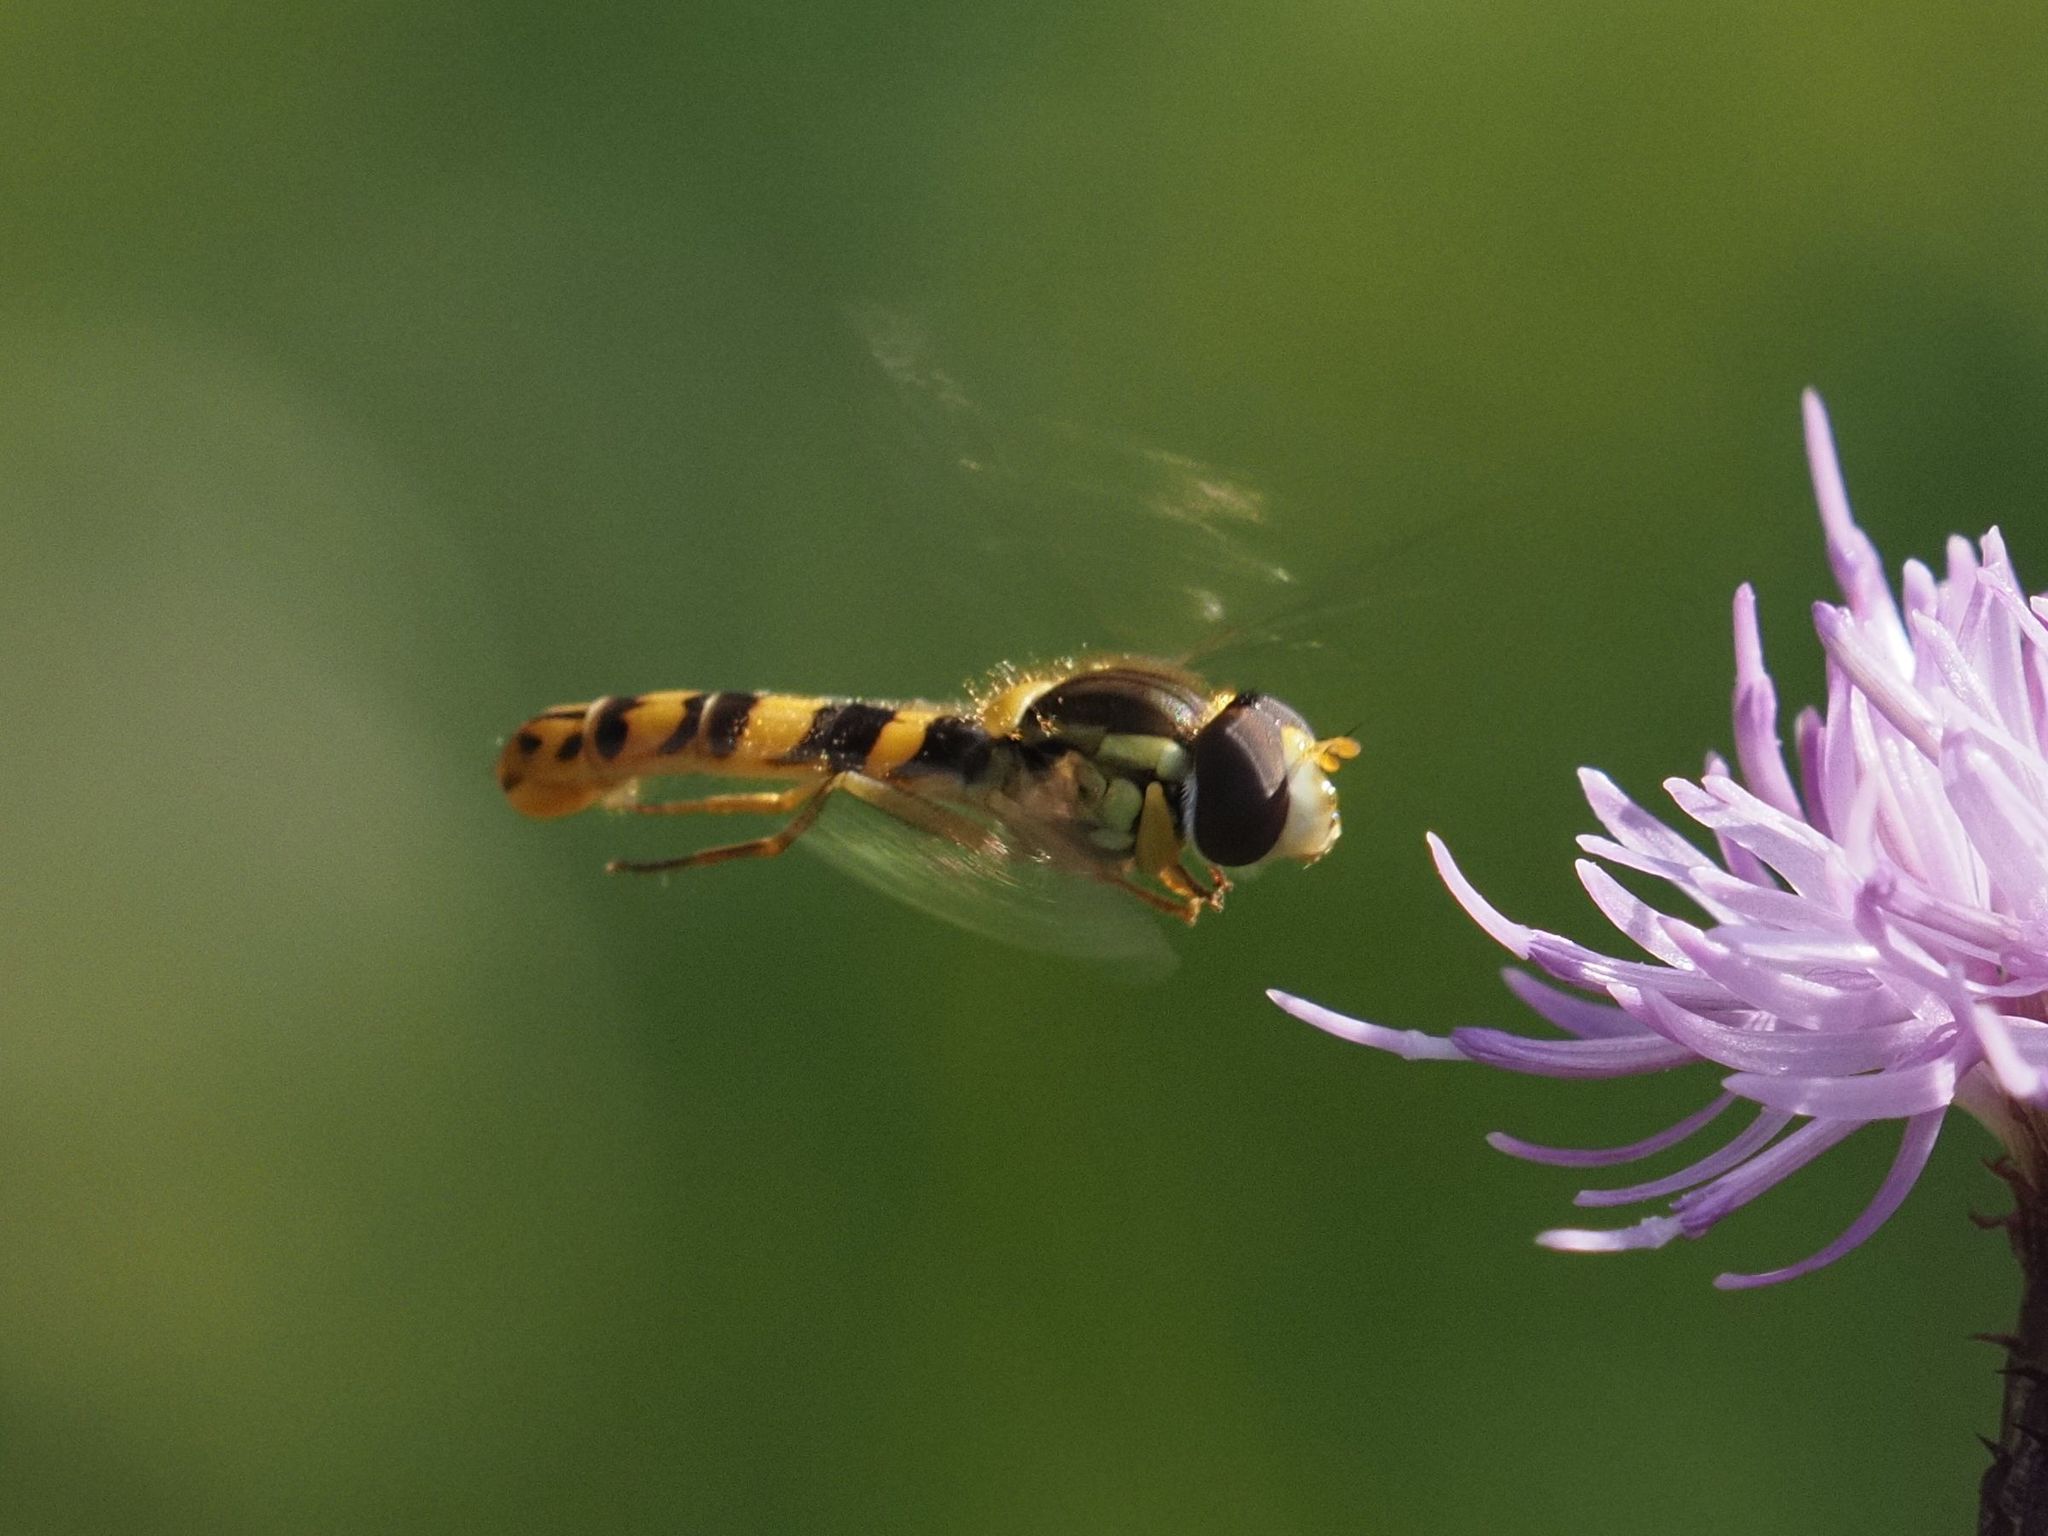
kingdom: Animalia
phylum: Arthropoda
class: Insecta
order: Diptera
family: Syrphidae
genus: Sphaerophoria
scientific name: Sphaerophoria
